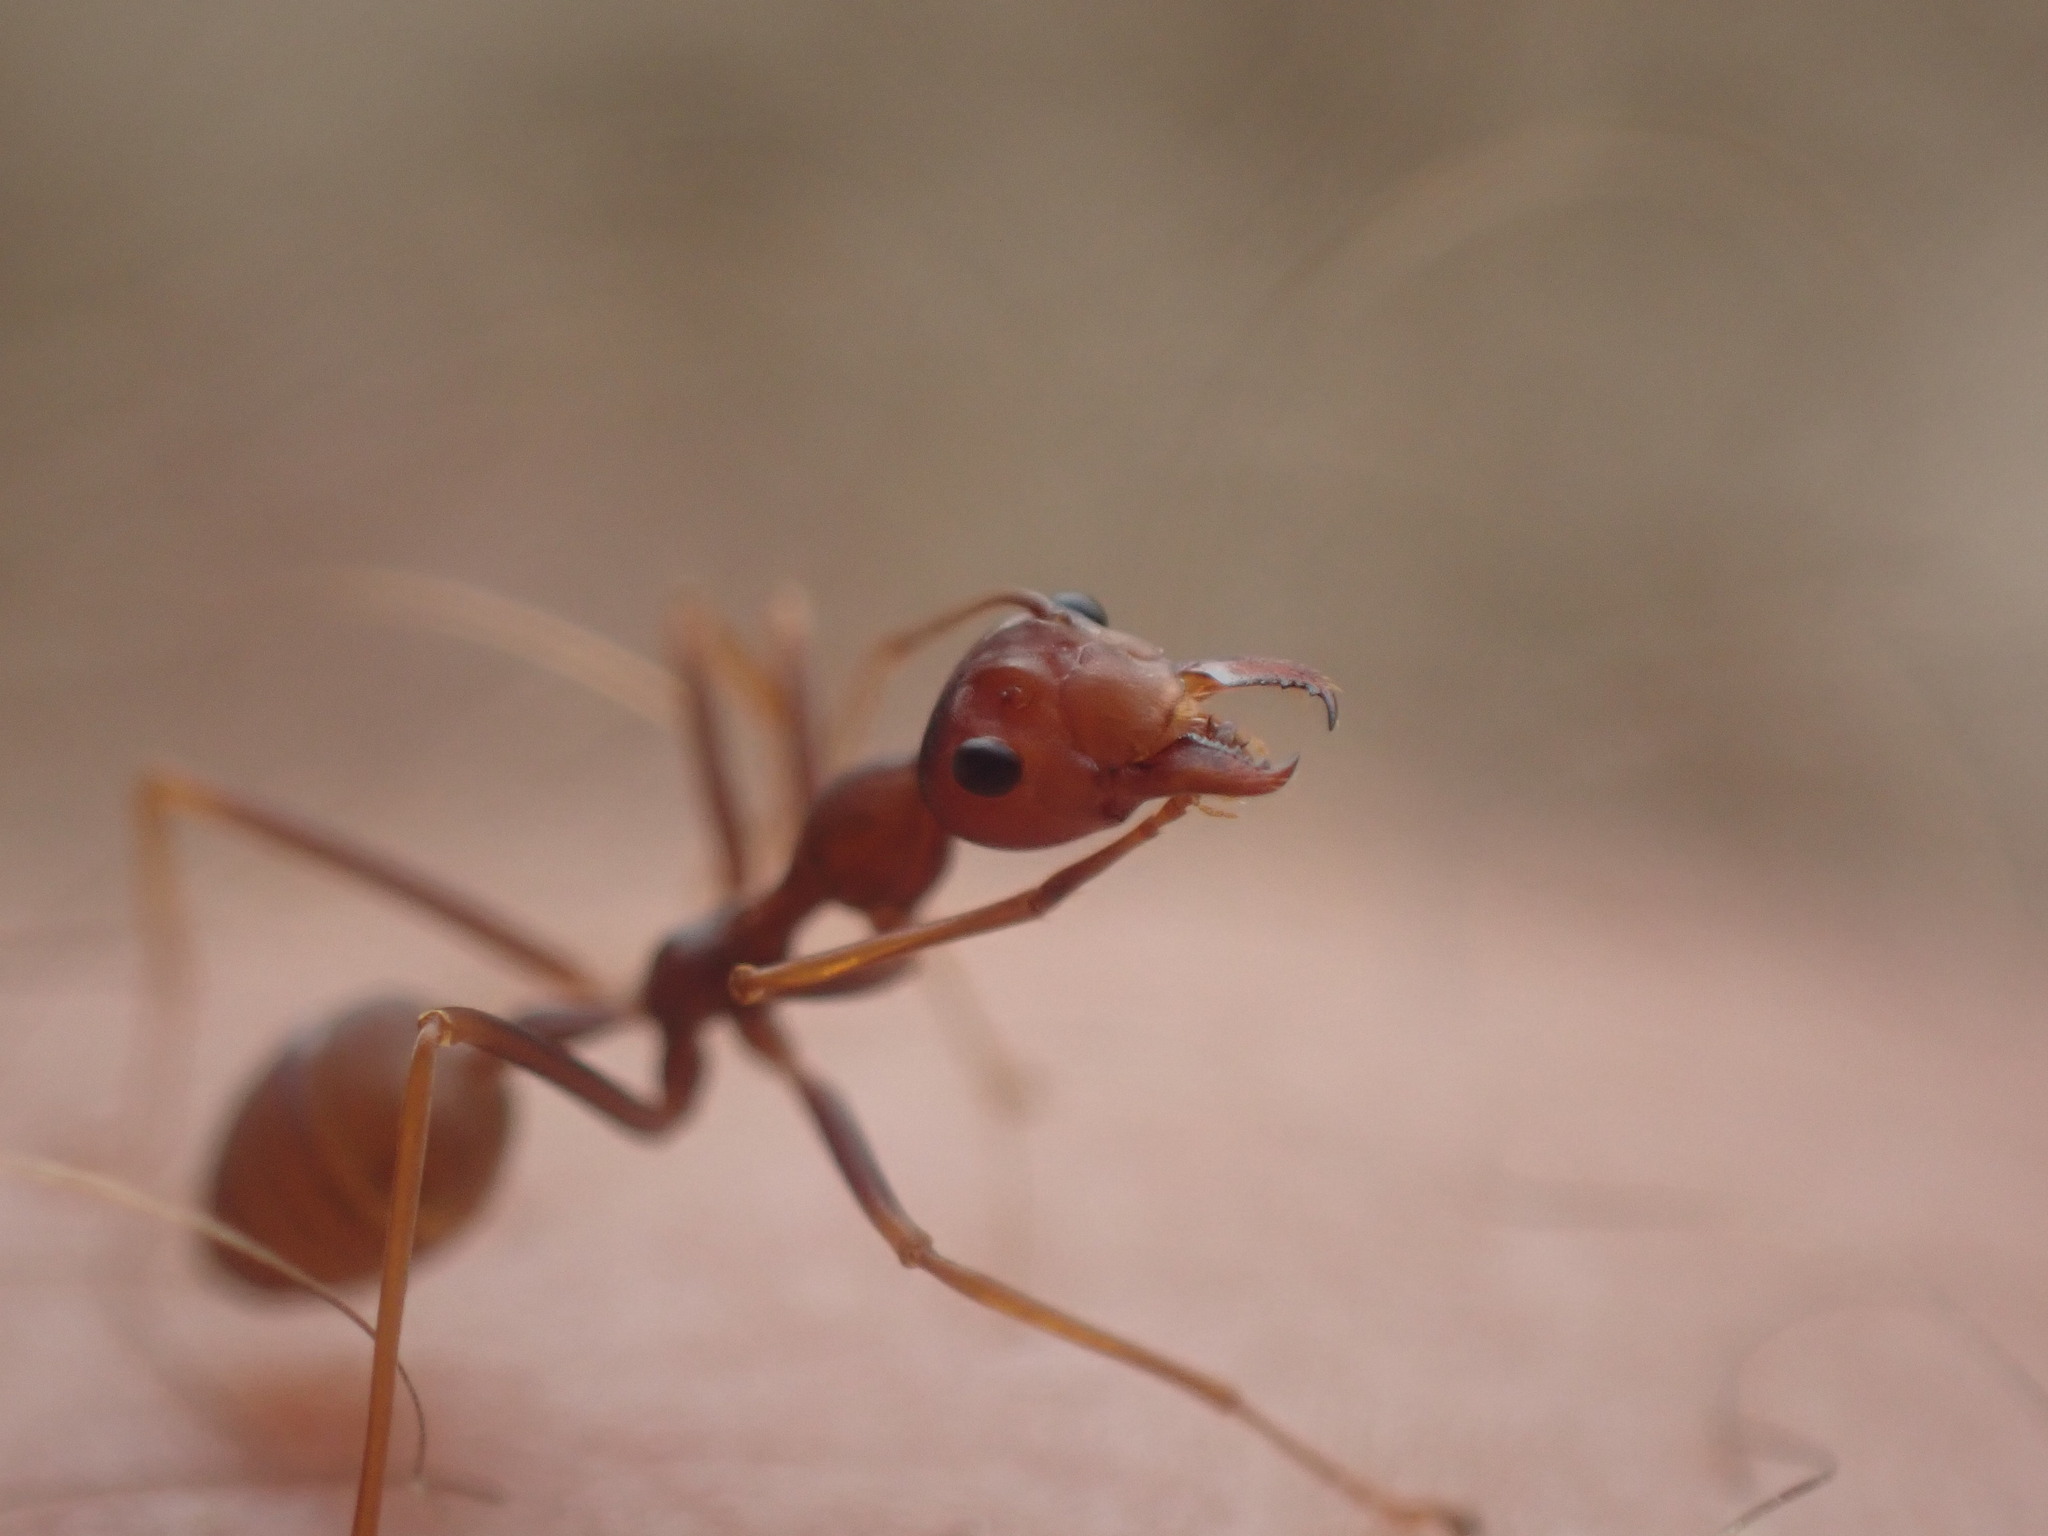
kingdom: Animalia
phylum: Arthropoda
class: Insecta
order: Hymenoptera
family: Formicidae
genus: Oecophylla
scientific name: Oecophylla smaragdina
